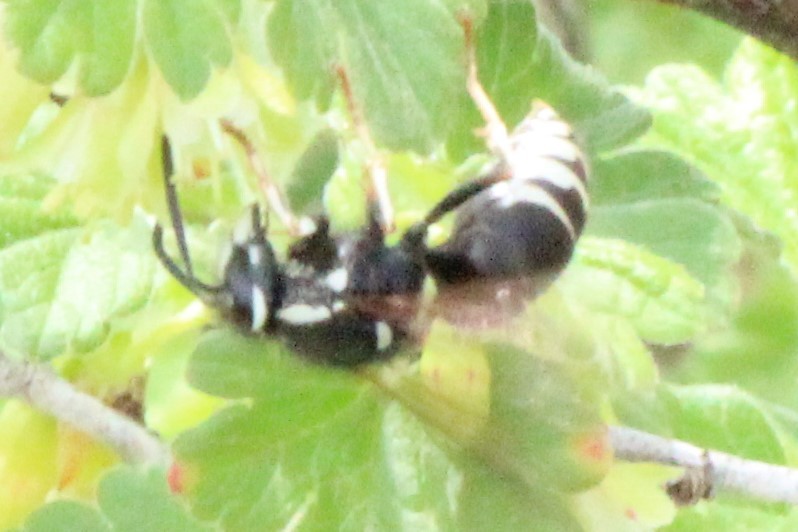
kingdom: Animalia
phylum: Arthropoda
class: Insecta
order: Hymenoptera
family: Vespidae
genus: Vespula
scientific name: Vespula consobrina
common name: Blackjacket
